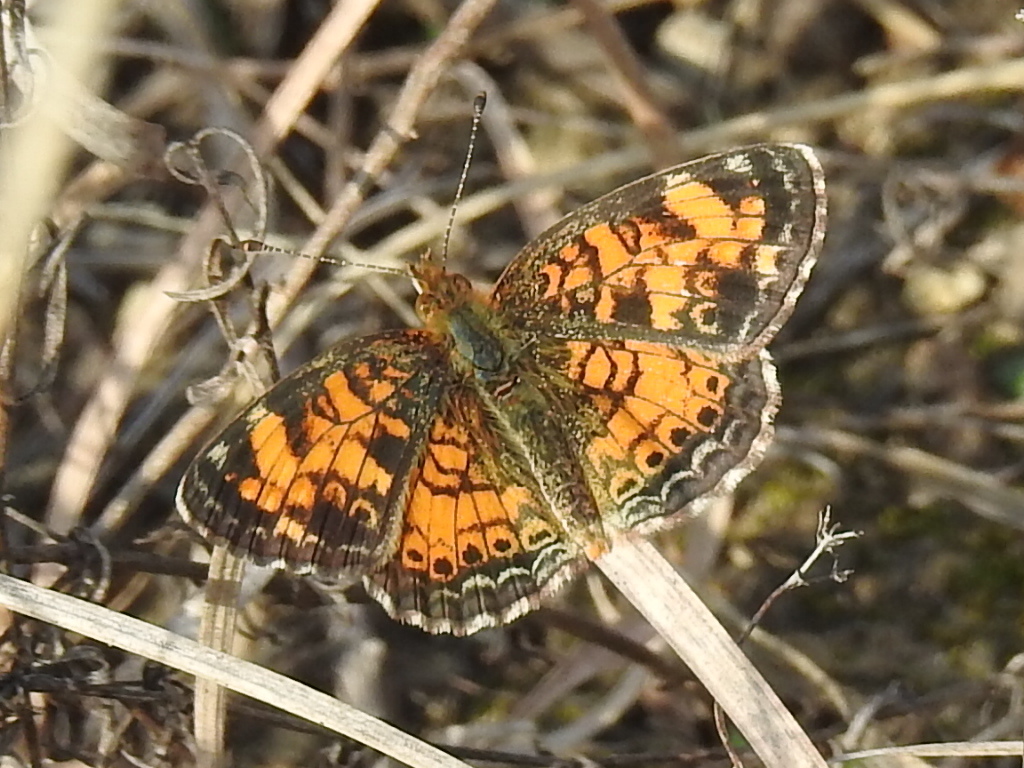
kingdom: Animalia
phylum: Arthropoda
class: Insecta
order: Lepidoptera
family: Nymphalidae
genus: Phyciodes
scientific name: Phyciodes tharos
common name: Pearl crescent
